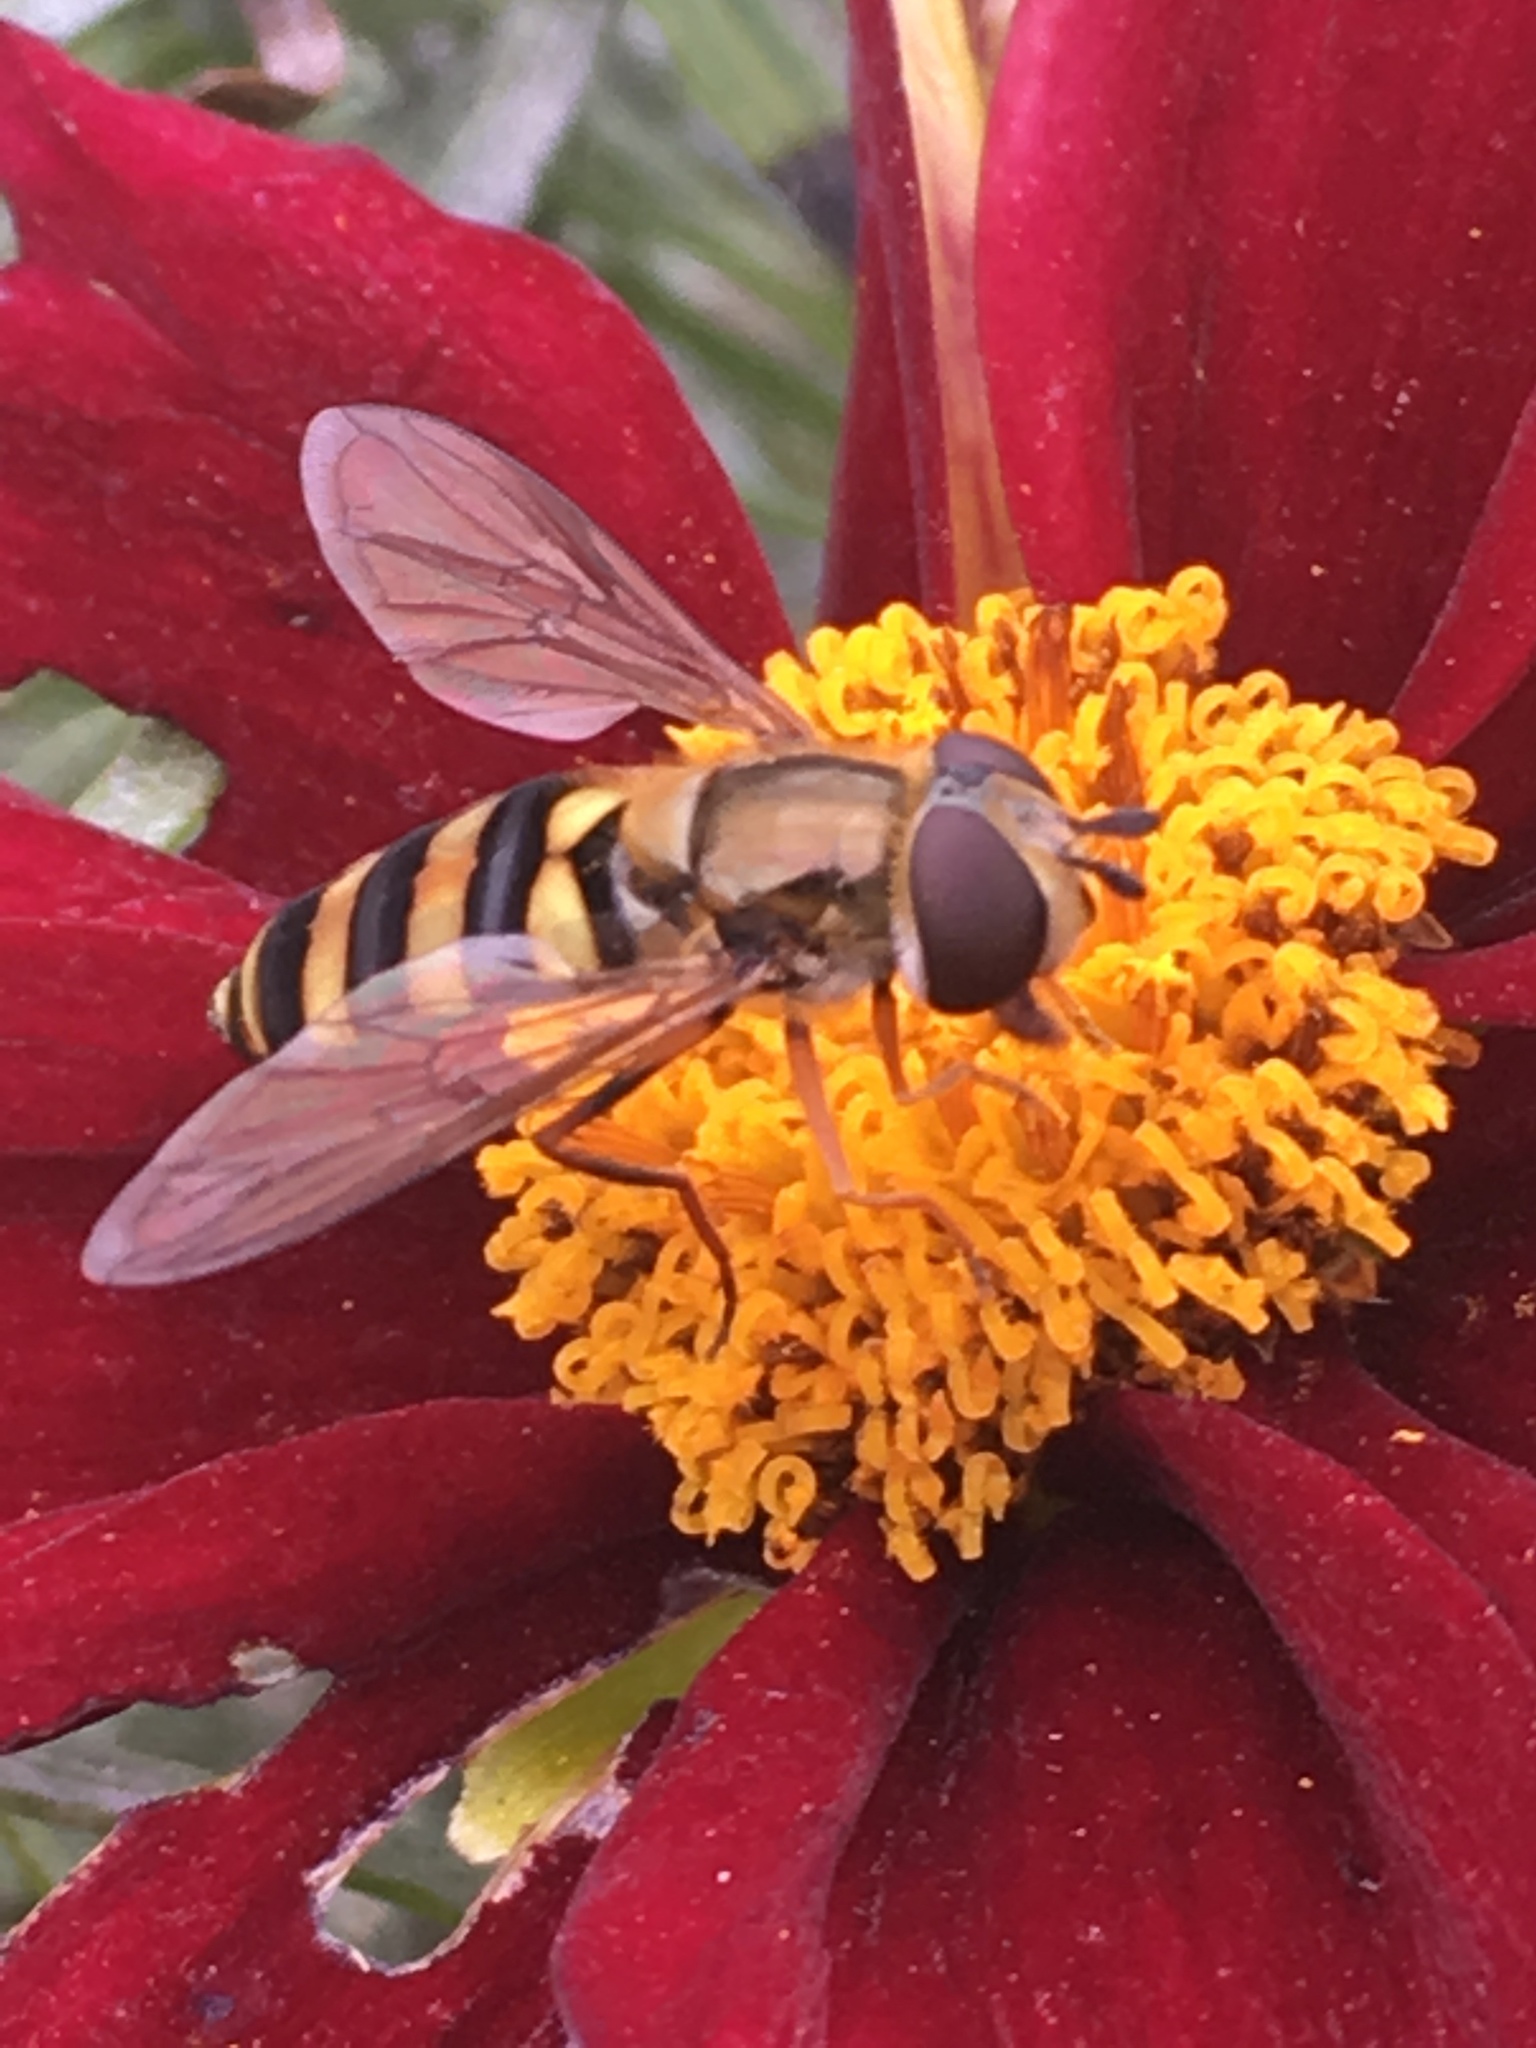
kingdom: Animalia
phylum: Arthropoda
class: Insecta
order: Diptera
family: Syrphidae
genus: Eupeodes
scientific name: Eupeodes
